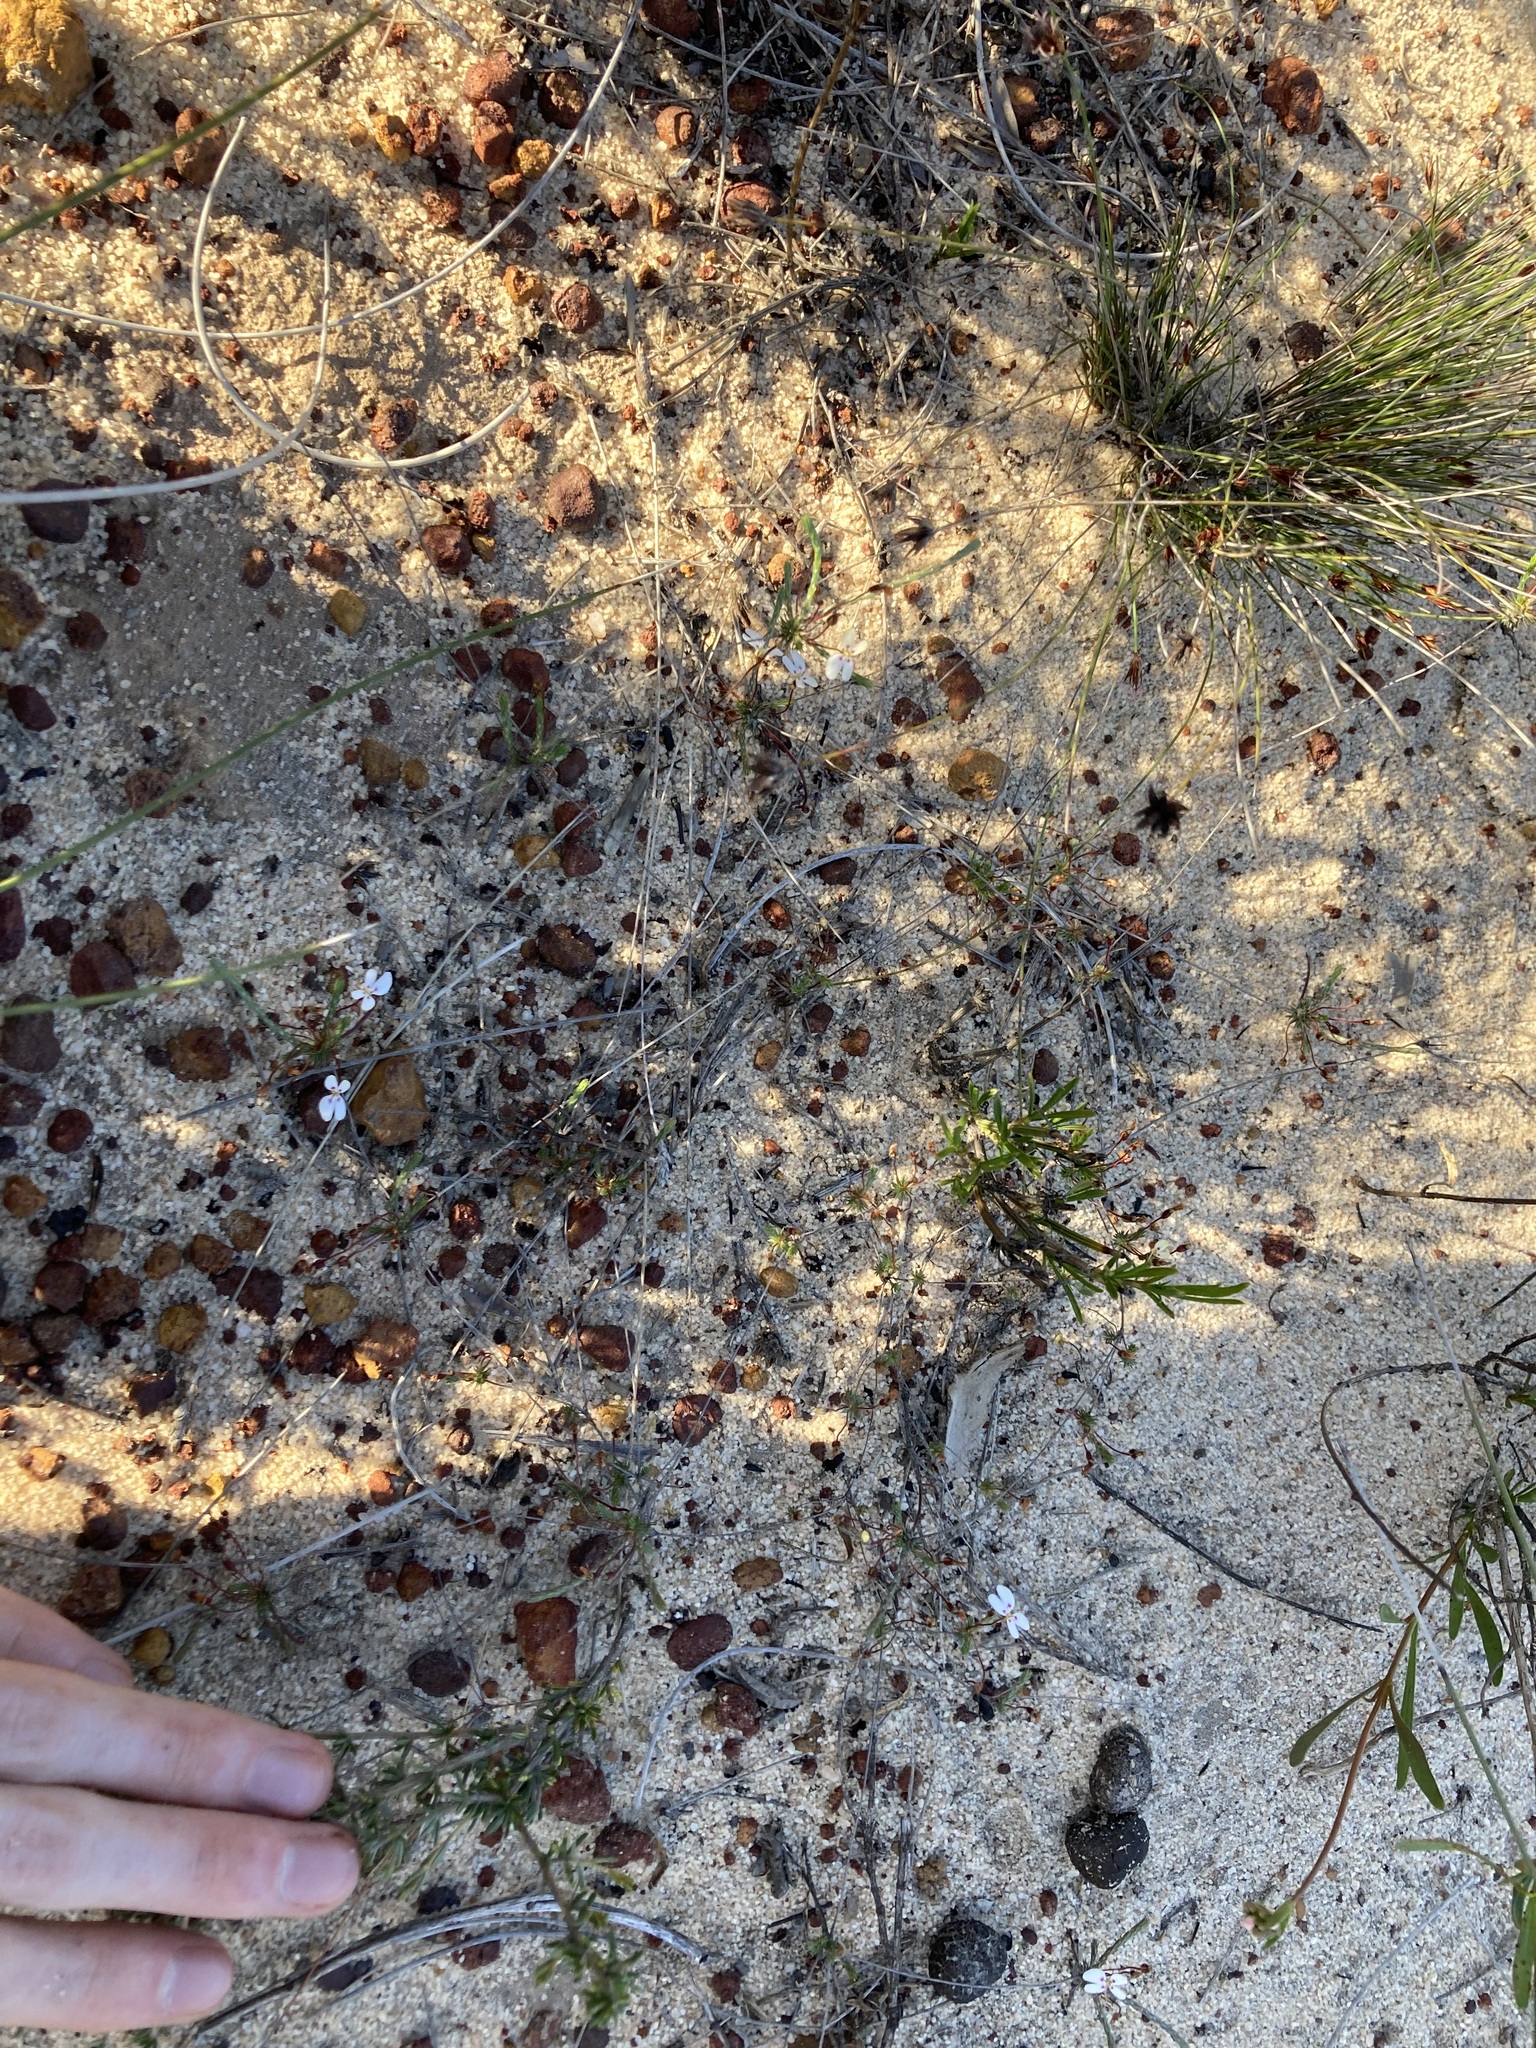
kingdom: Plantae
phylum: Tracheophyta
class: Magnoliopsida
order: Asterales
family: Stylidiaceae
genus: Stylidium
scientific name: Stylidium repens
